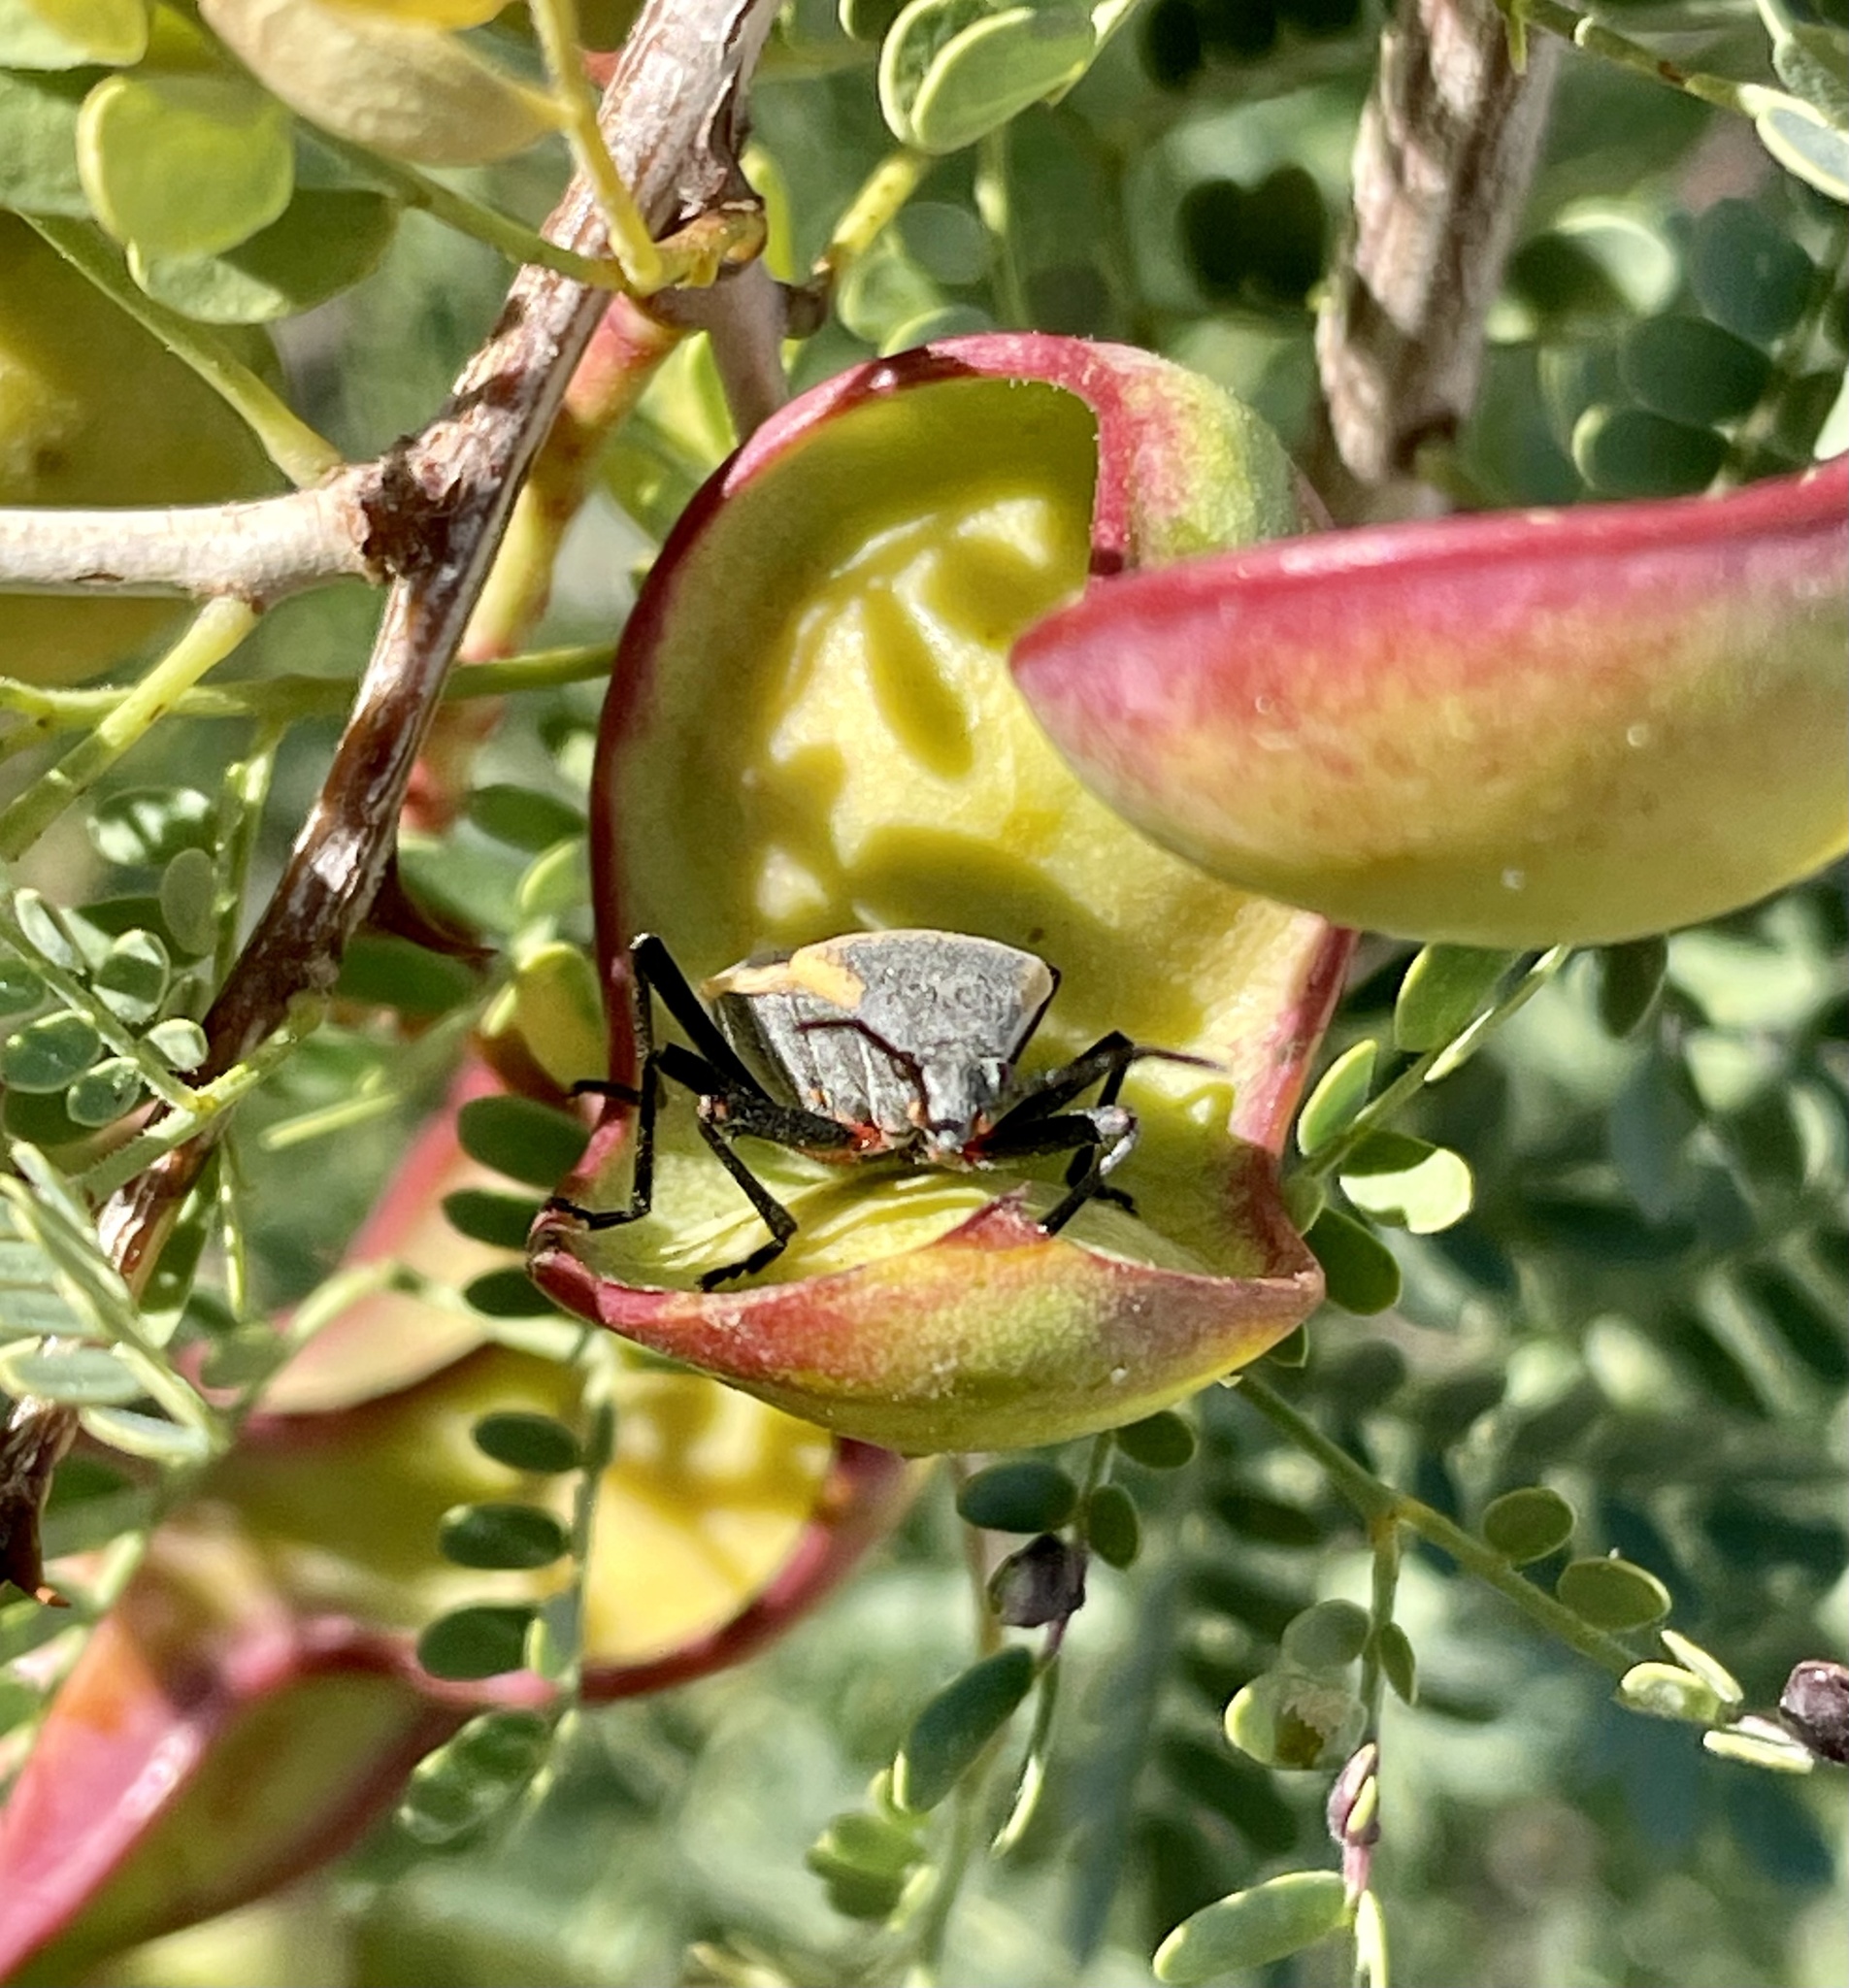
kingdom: Animalia
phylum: Arthropoda
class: Insecta
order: Hemiptera
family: Largidae
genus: Largus
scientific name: Largus californicus
